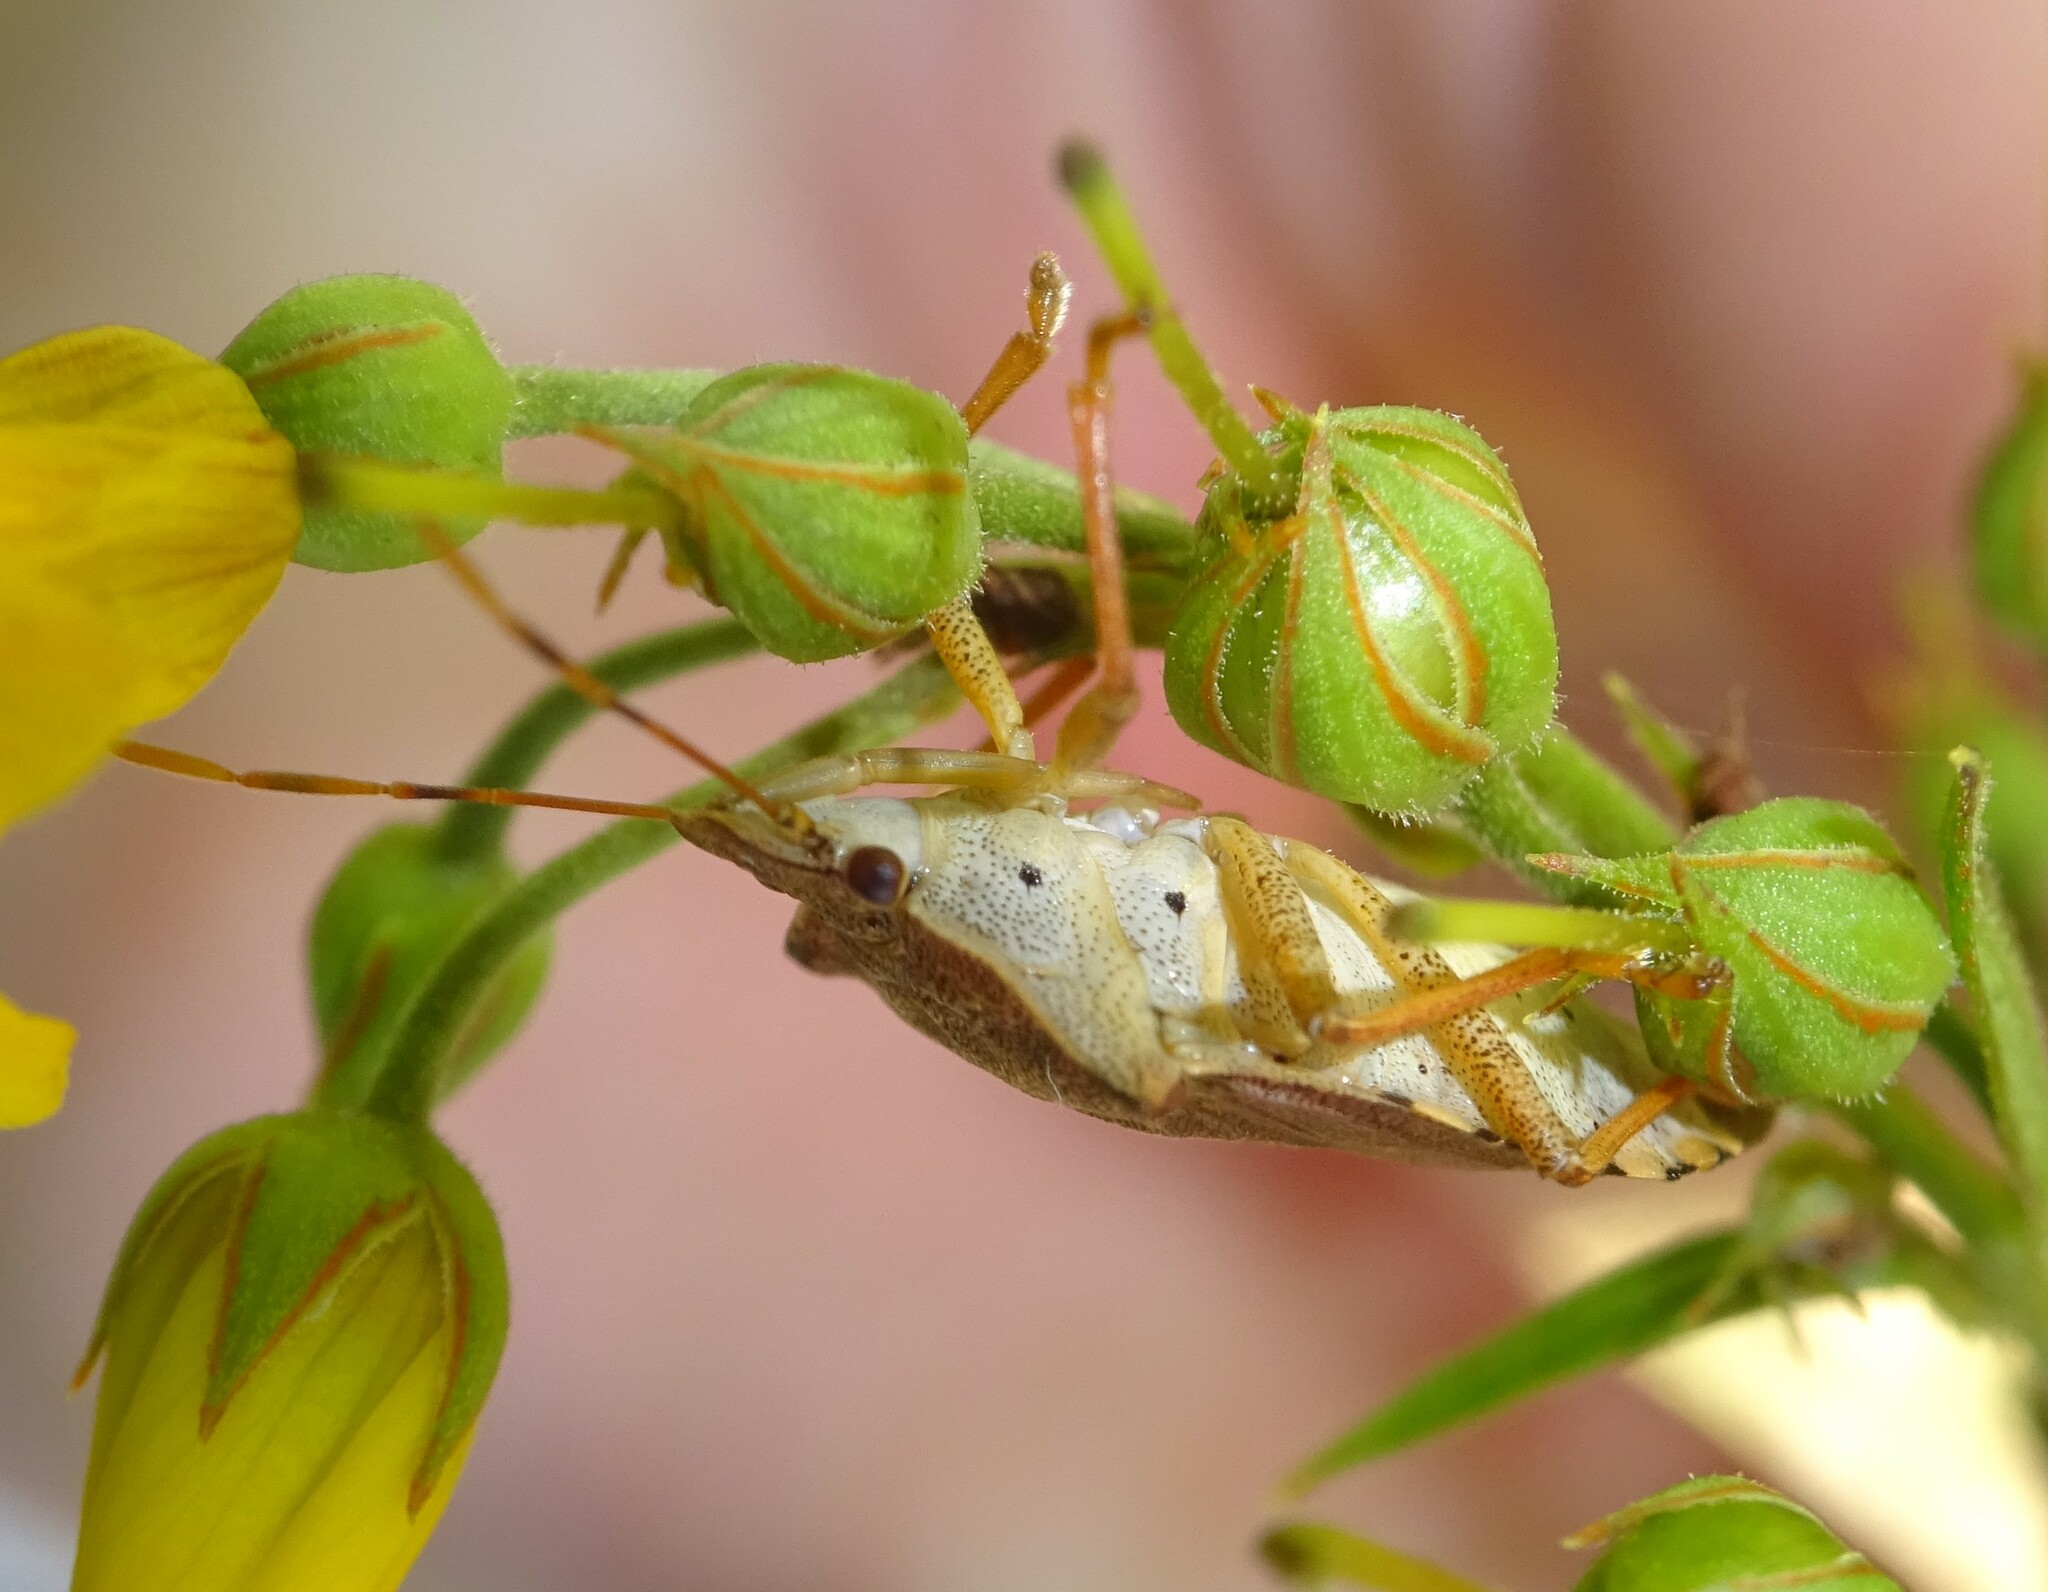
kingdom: Animalia
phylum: Arthropoda
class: Insecta
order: Hemiptera
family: Pentatomidae
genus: Arma
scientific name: Arma custos
